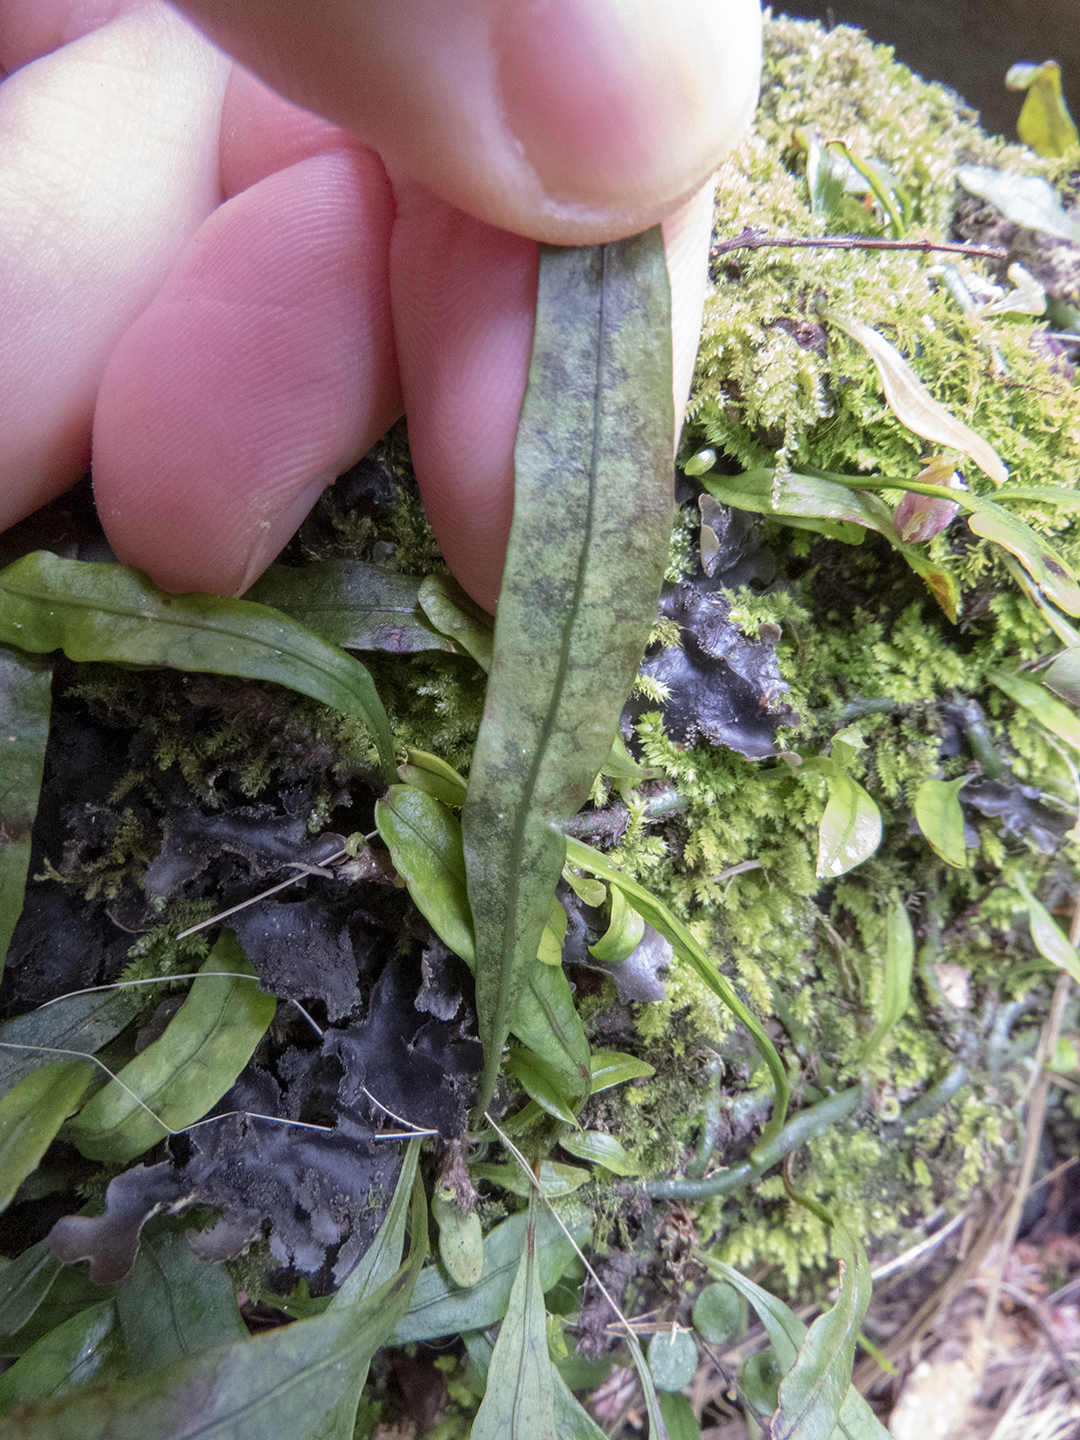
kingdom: Plantae
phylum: Tracheophyta
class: Polypodiopsida
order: Polypodiales
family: Polypodiaceae
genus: Lecanopteris
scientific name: Lecanopteris pustulata
